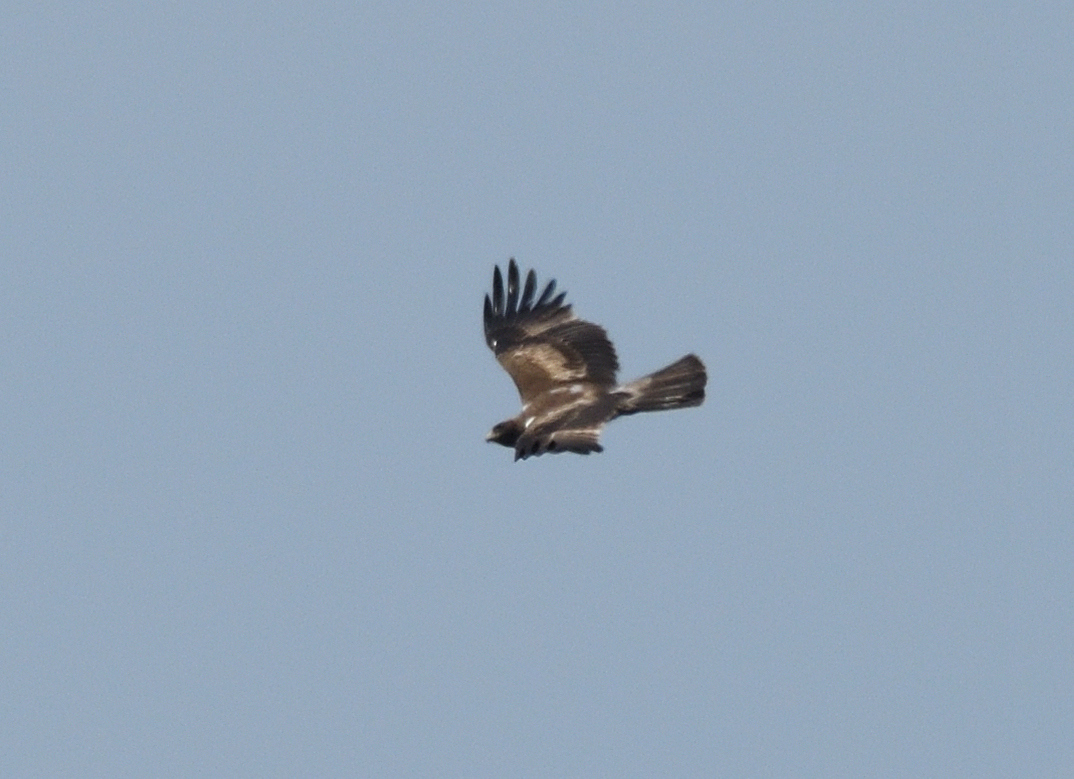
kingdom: Animalia
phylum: Chordata
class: Aves
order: Accipitriformes
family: Accipitridae
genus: Hieraaetus
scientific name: Hieraaetus pennatus
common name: Booted eagle
